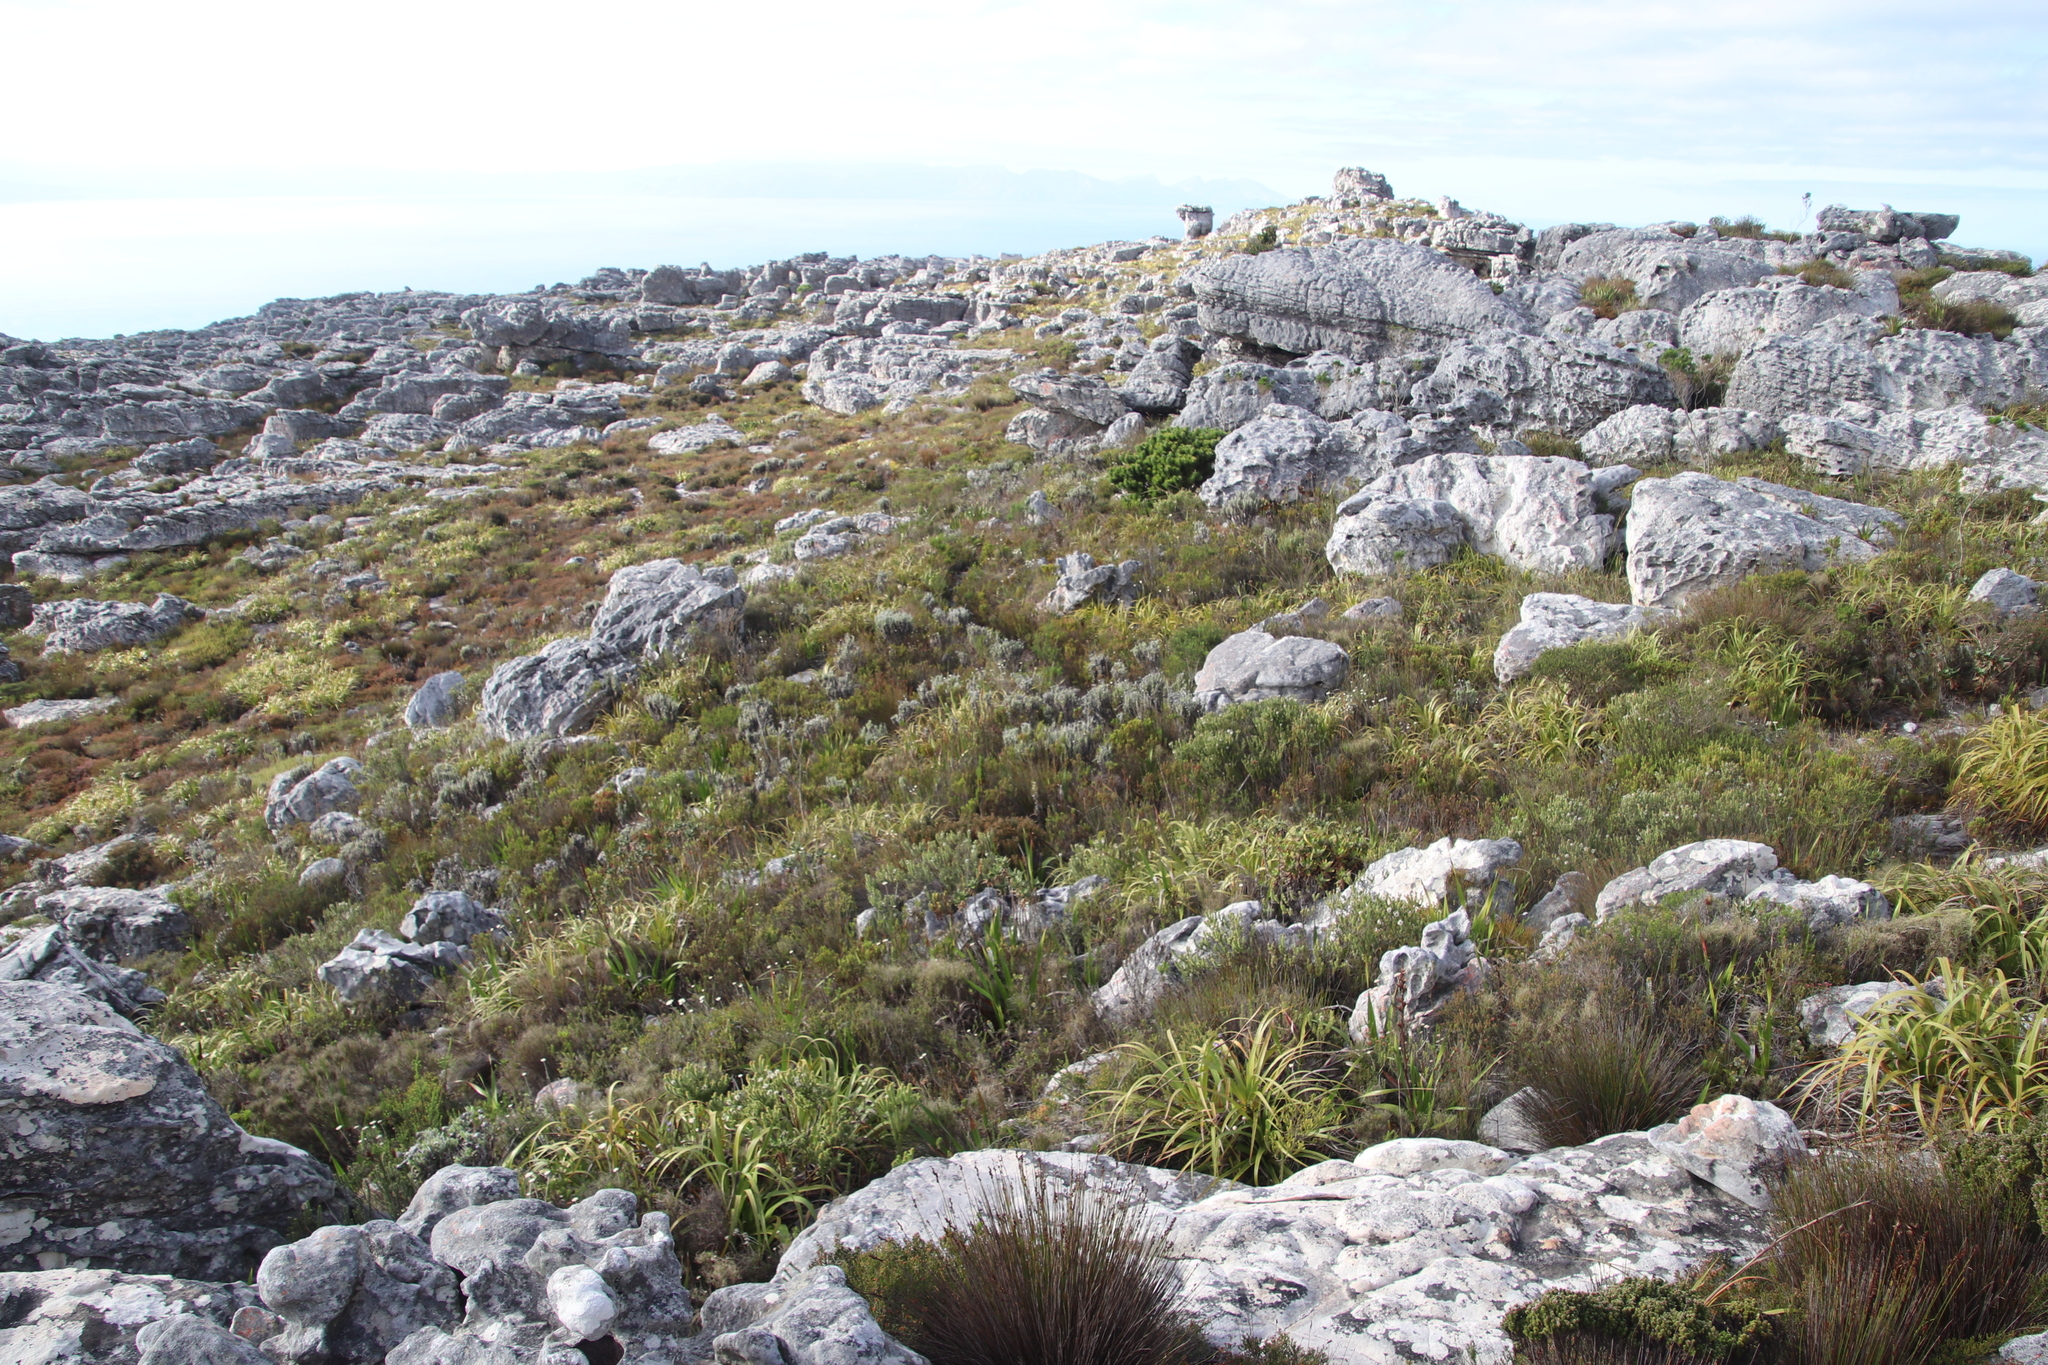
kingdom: Plantae
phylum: Tracheophyta
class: Magnoliopsida
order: Asterales
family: Asteraceae
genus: Syncarpha
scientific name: Syncarpha vestita
